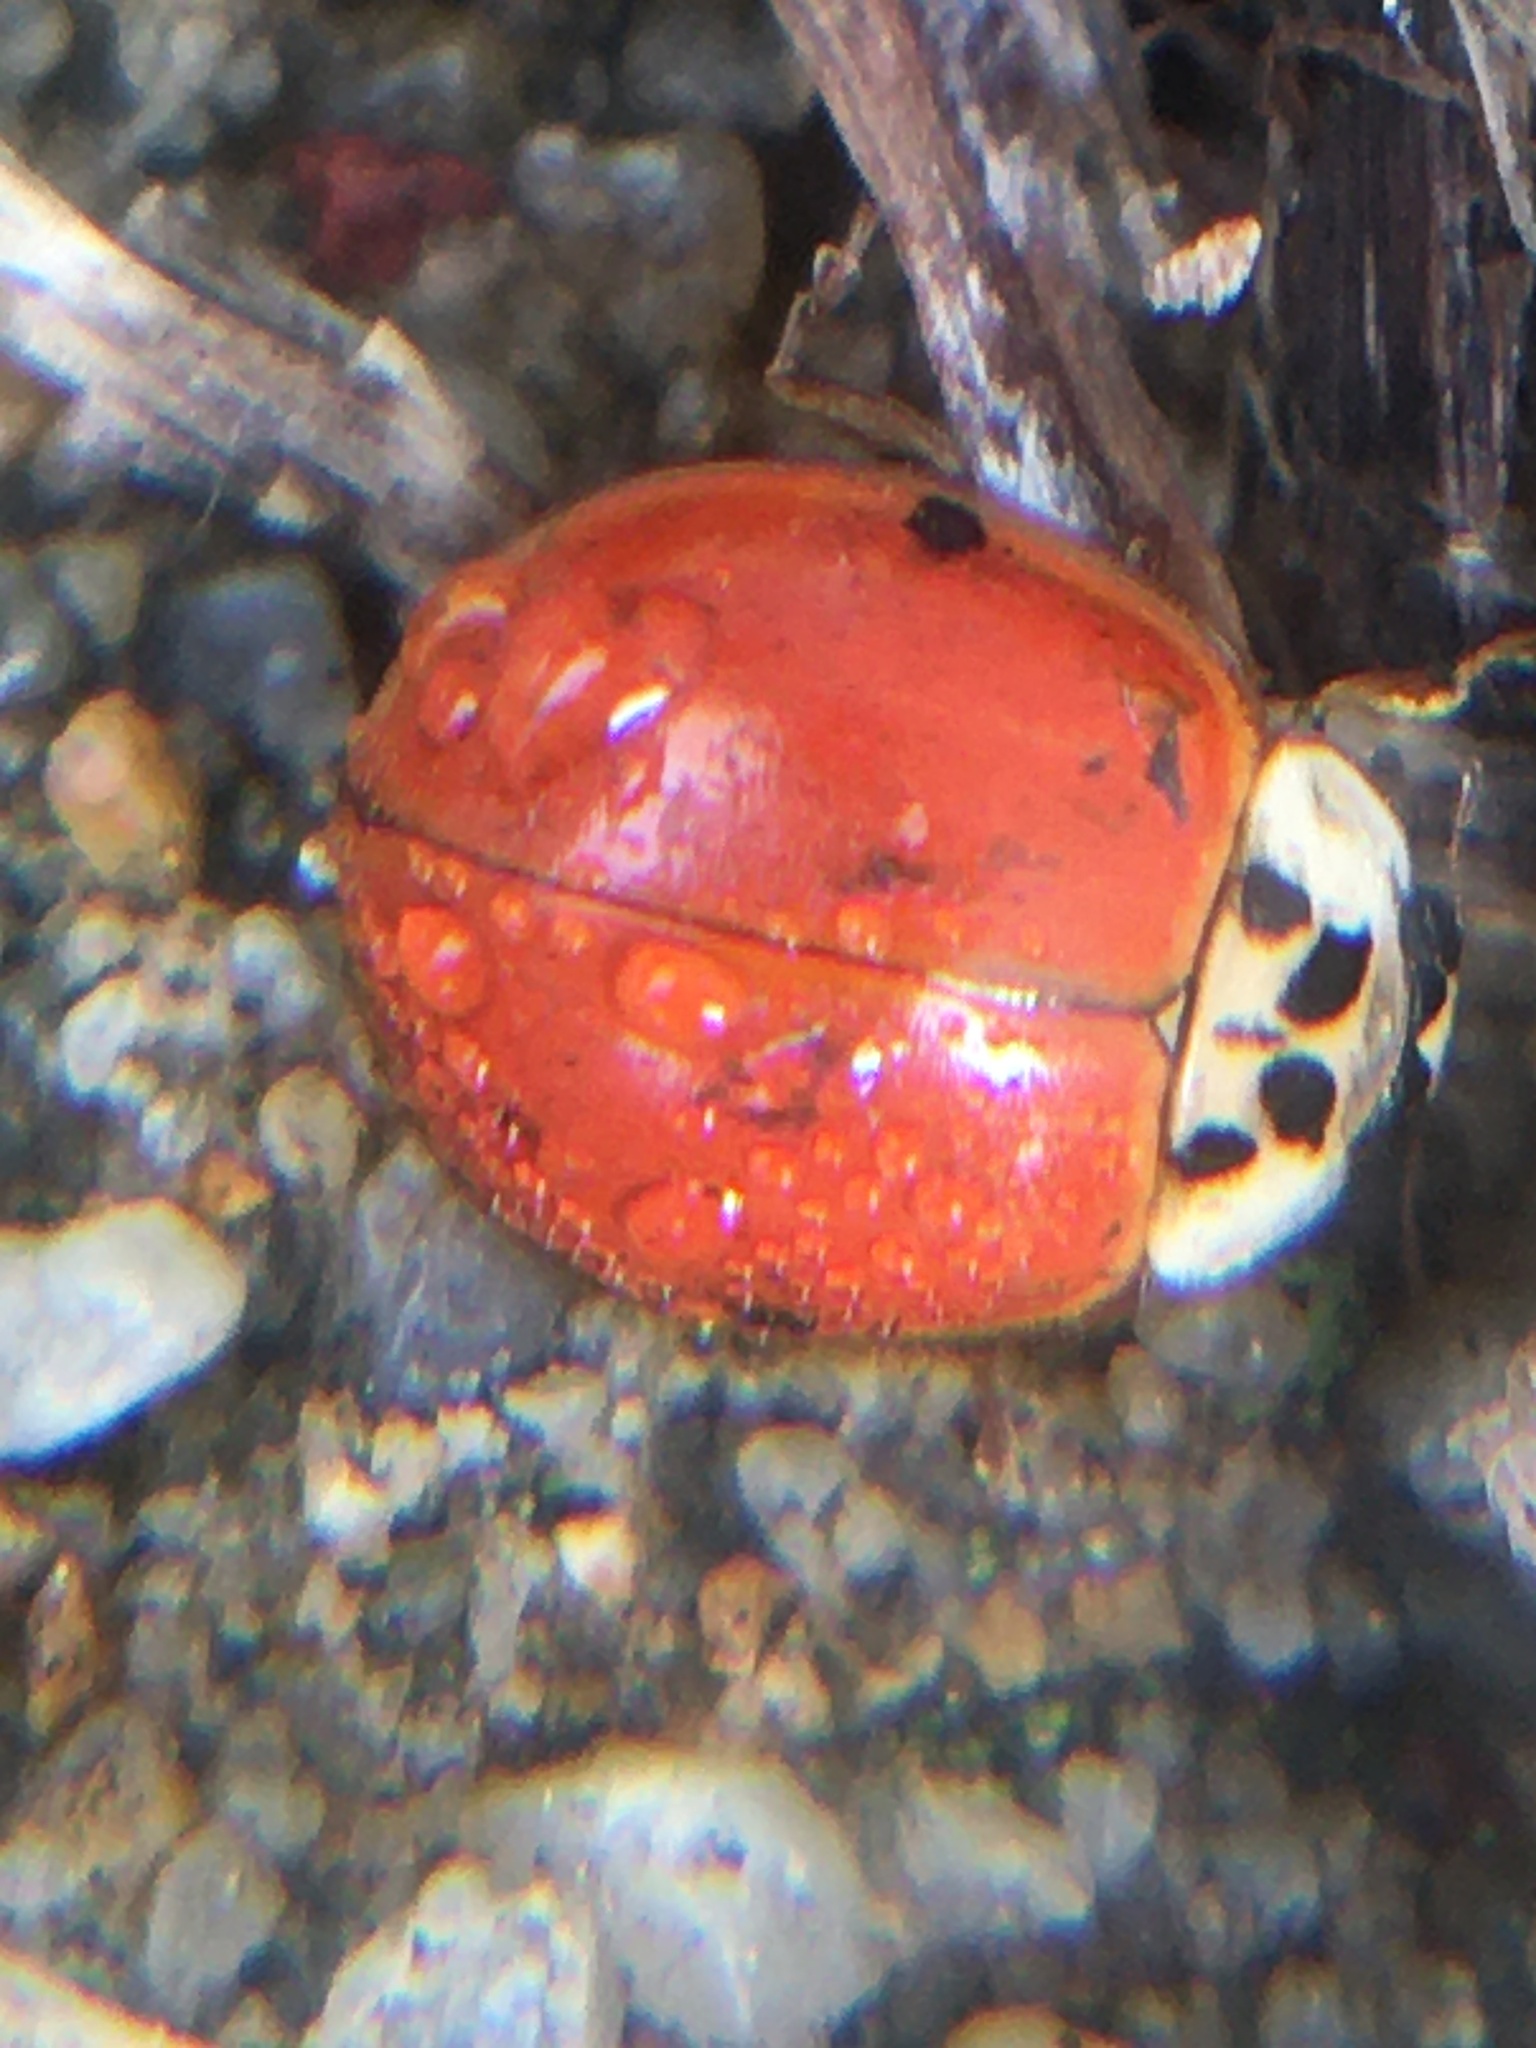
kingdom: Animalia
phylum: Arthropoda
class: Insecta
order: Coleoptera
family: Coccinellidae
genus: Harmonia
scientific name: Harmonia axyridis
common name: Harlequin ladybird
